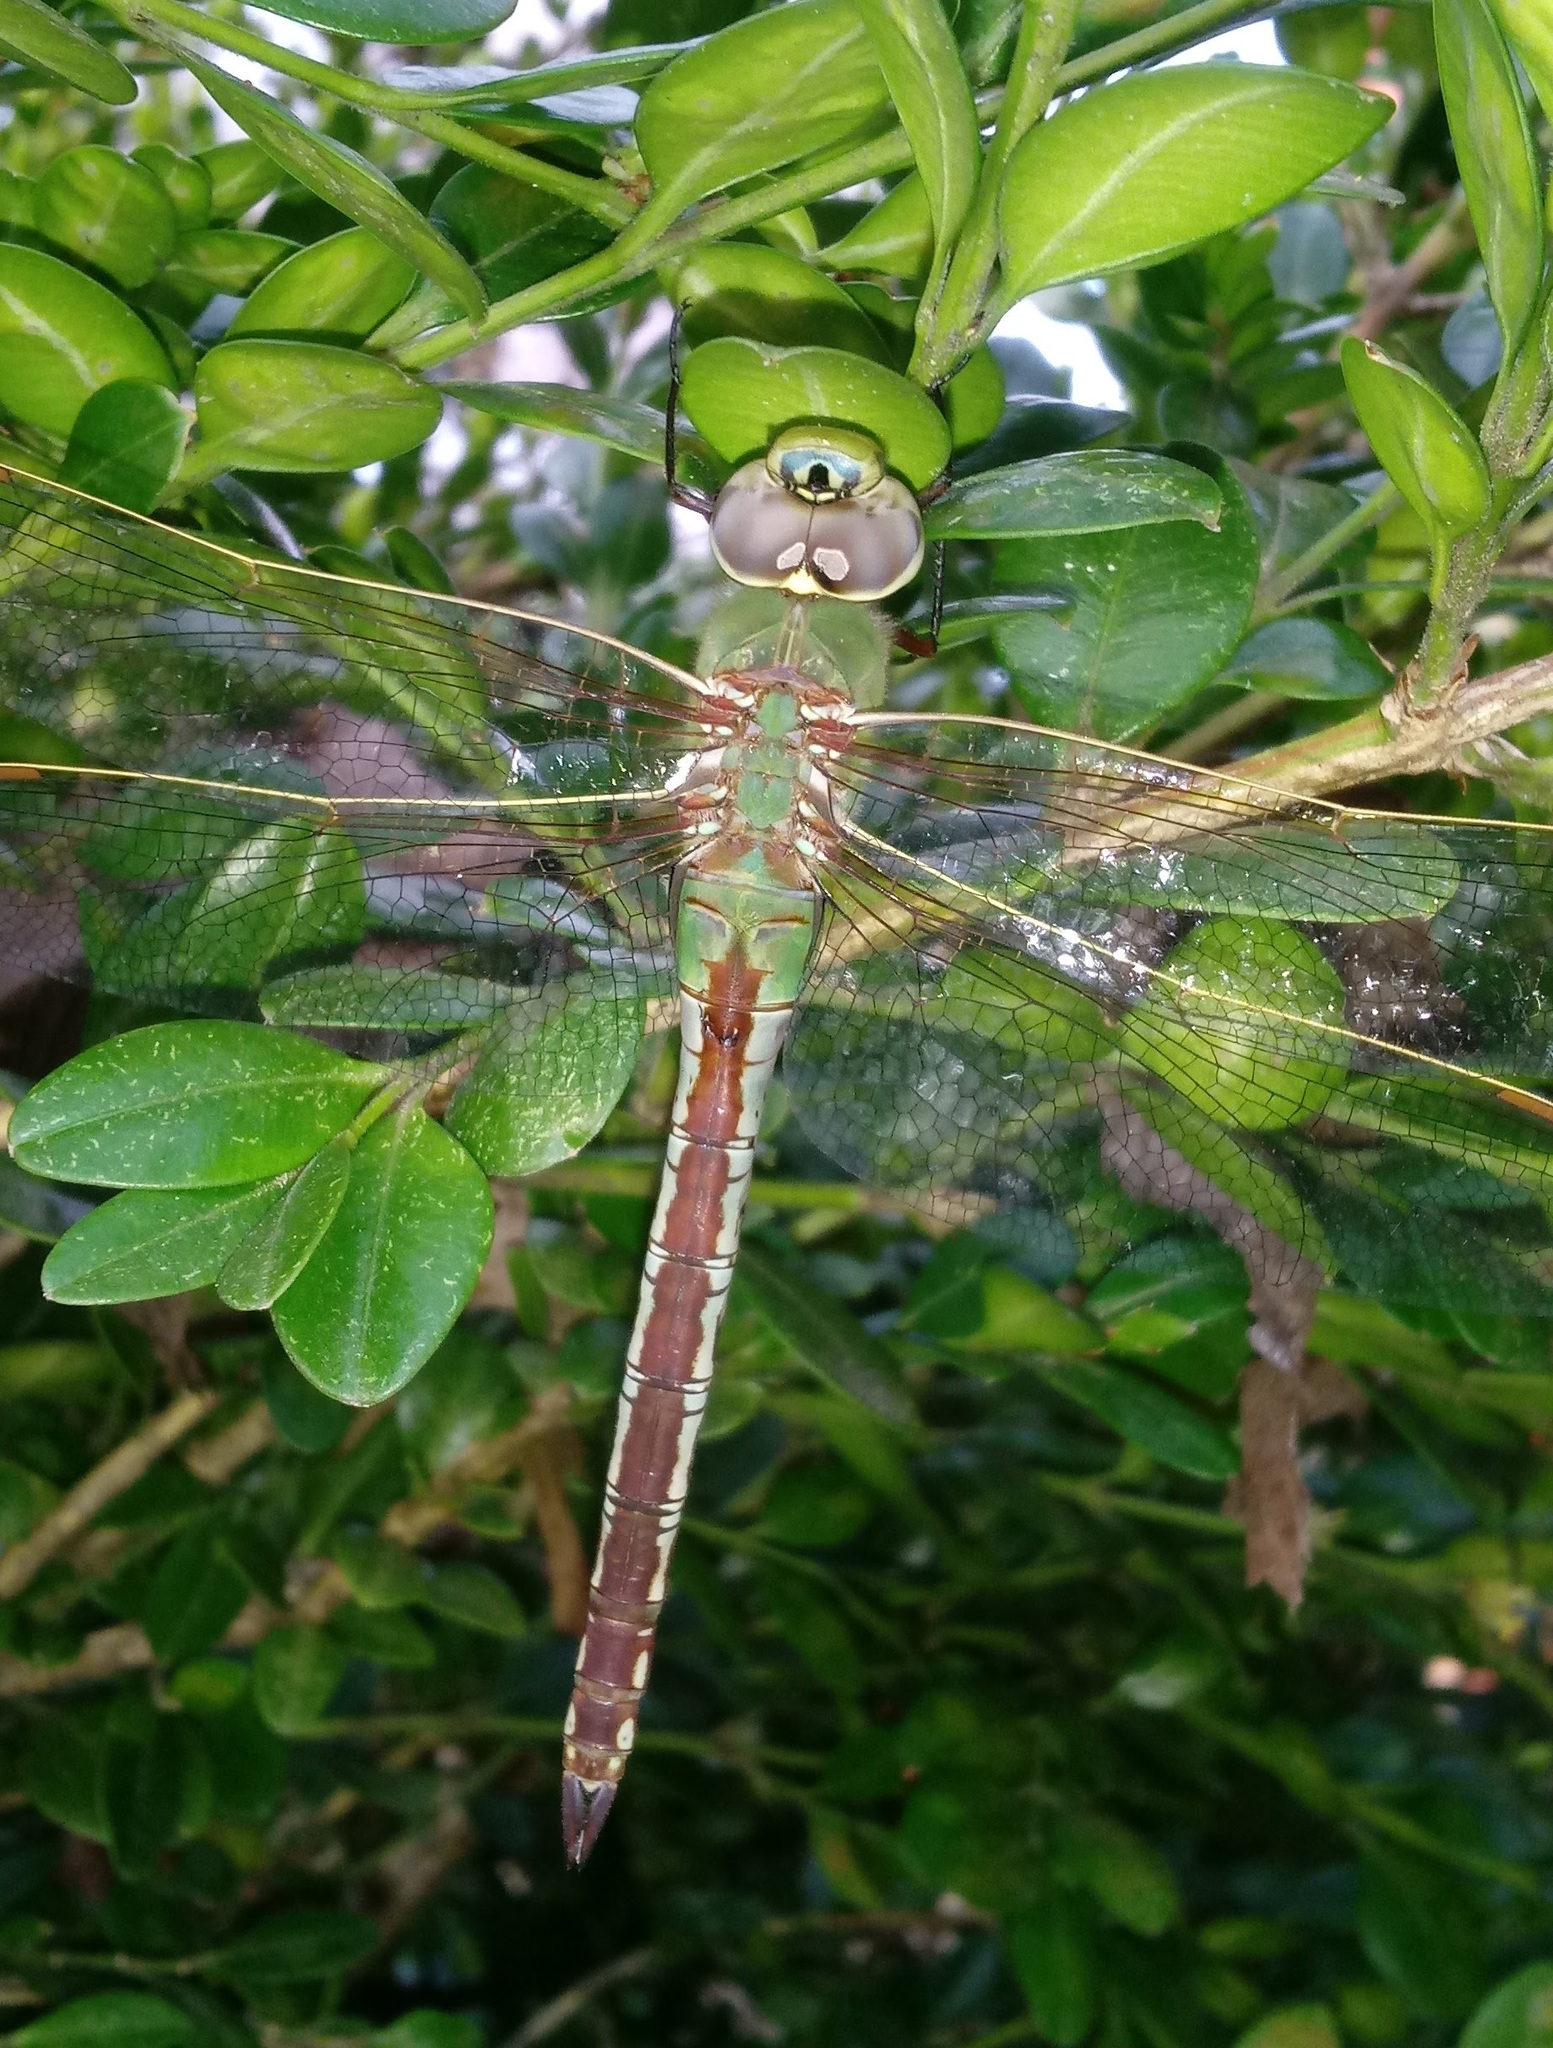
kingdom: Animalia
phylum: Arthropoda
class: Insecta
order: Odonata
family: Aeshnidae
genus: Anax
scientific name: Anax junius
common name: Common green darner
